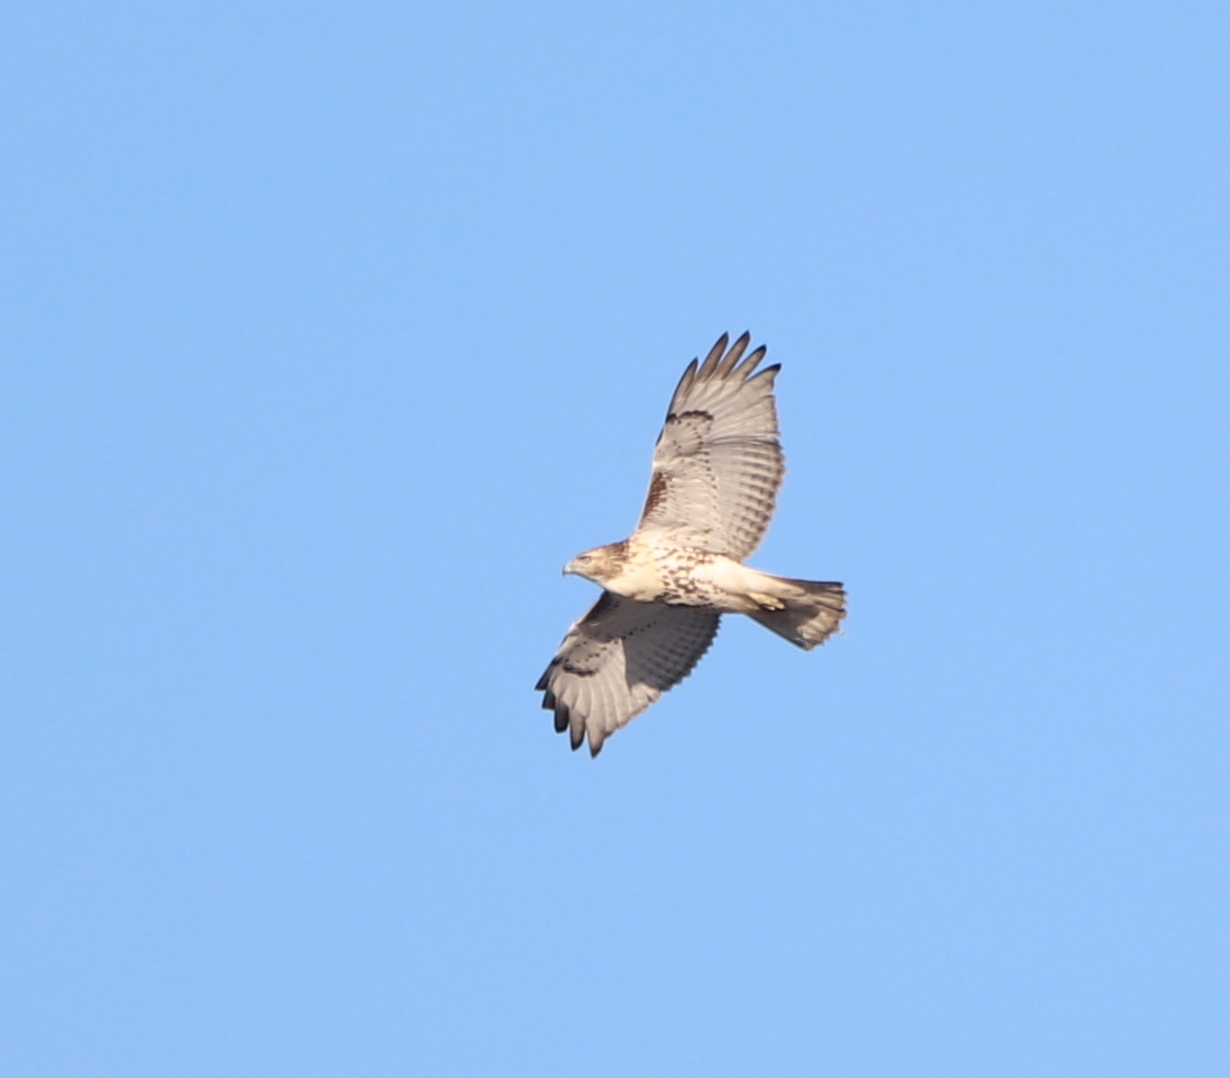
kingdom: Animalia
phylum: Chordata
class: Aves
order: Accipitriformes
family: Accipitridae
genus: Buteo
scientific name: Buteo jamaicensis
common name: Red-tailed hawk
